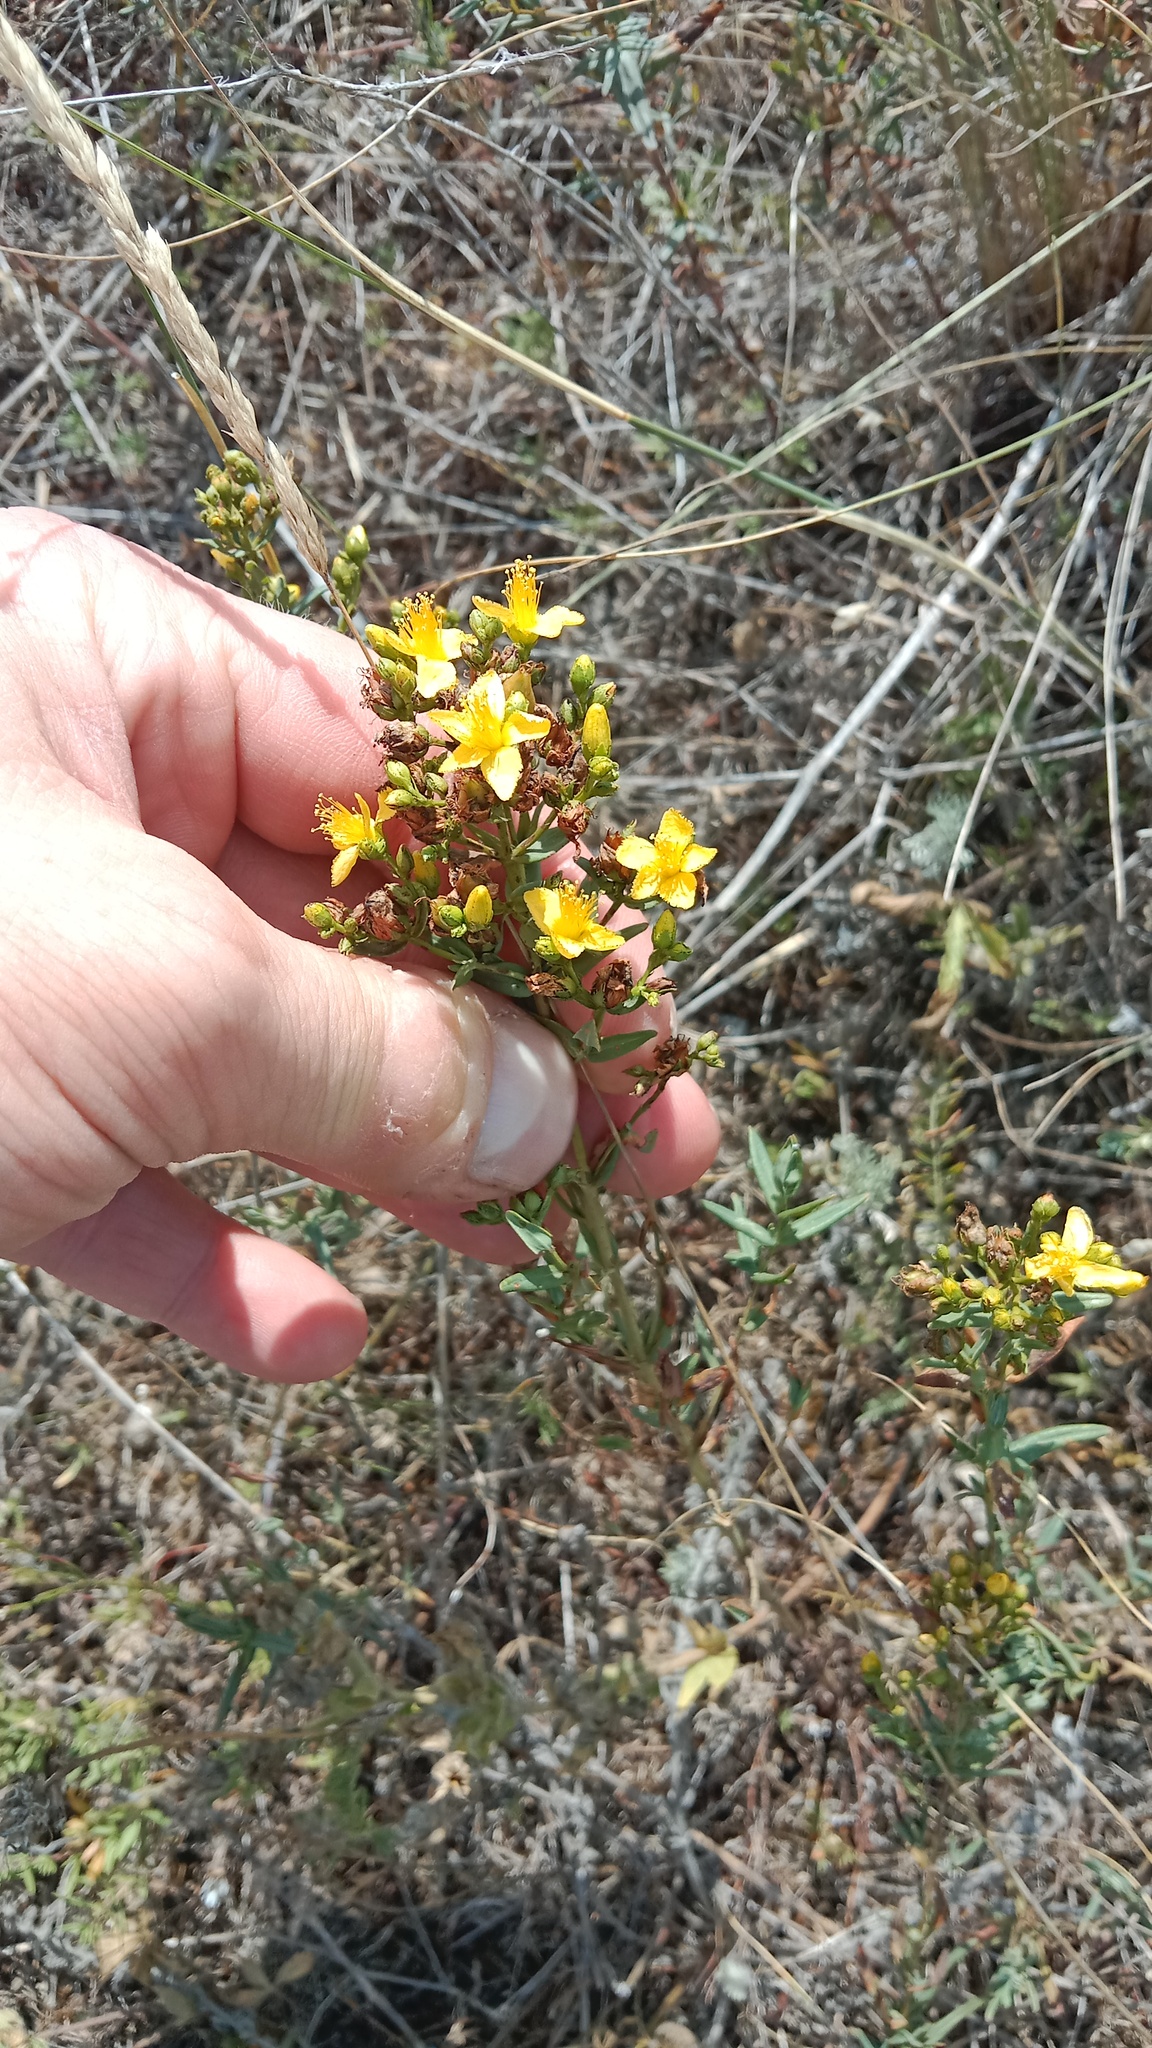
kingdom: Plantae
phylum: Tracheophyta
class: Magnoliopsida
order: Malpighiales
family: Hypericaceae
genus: Hypericum
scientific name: Hypericum elegans
